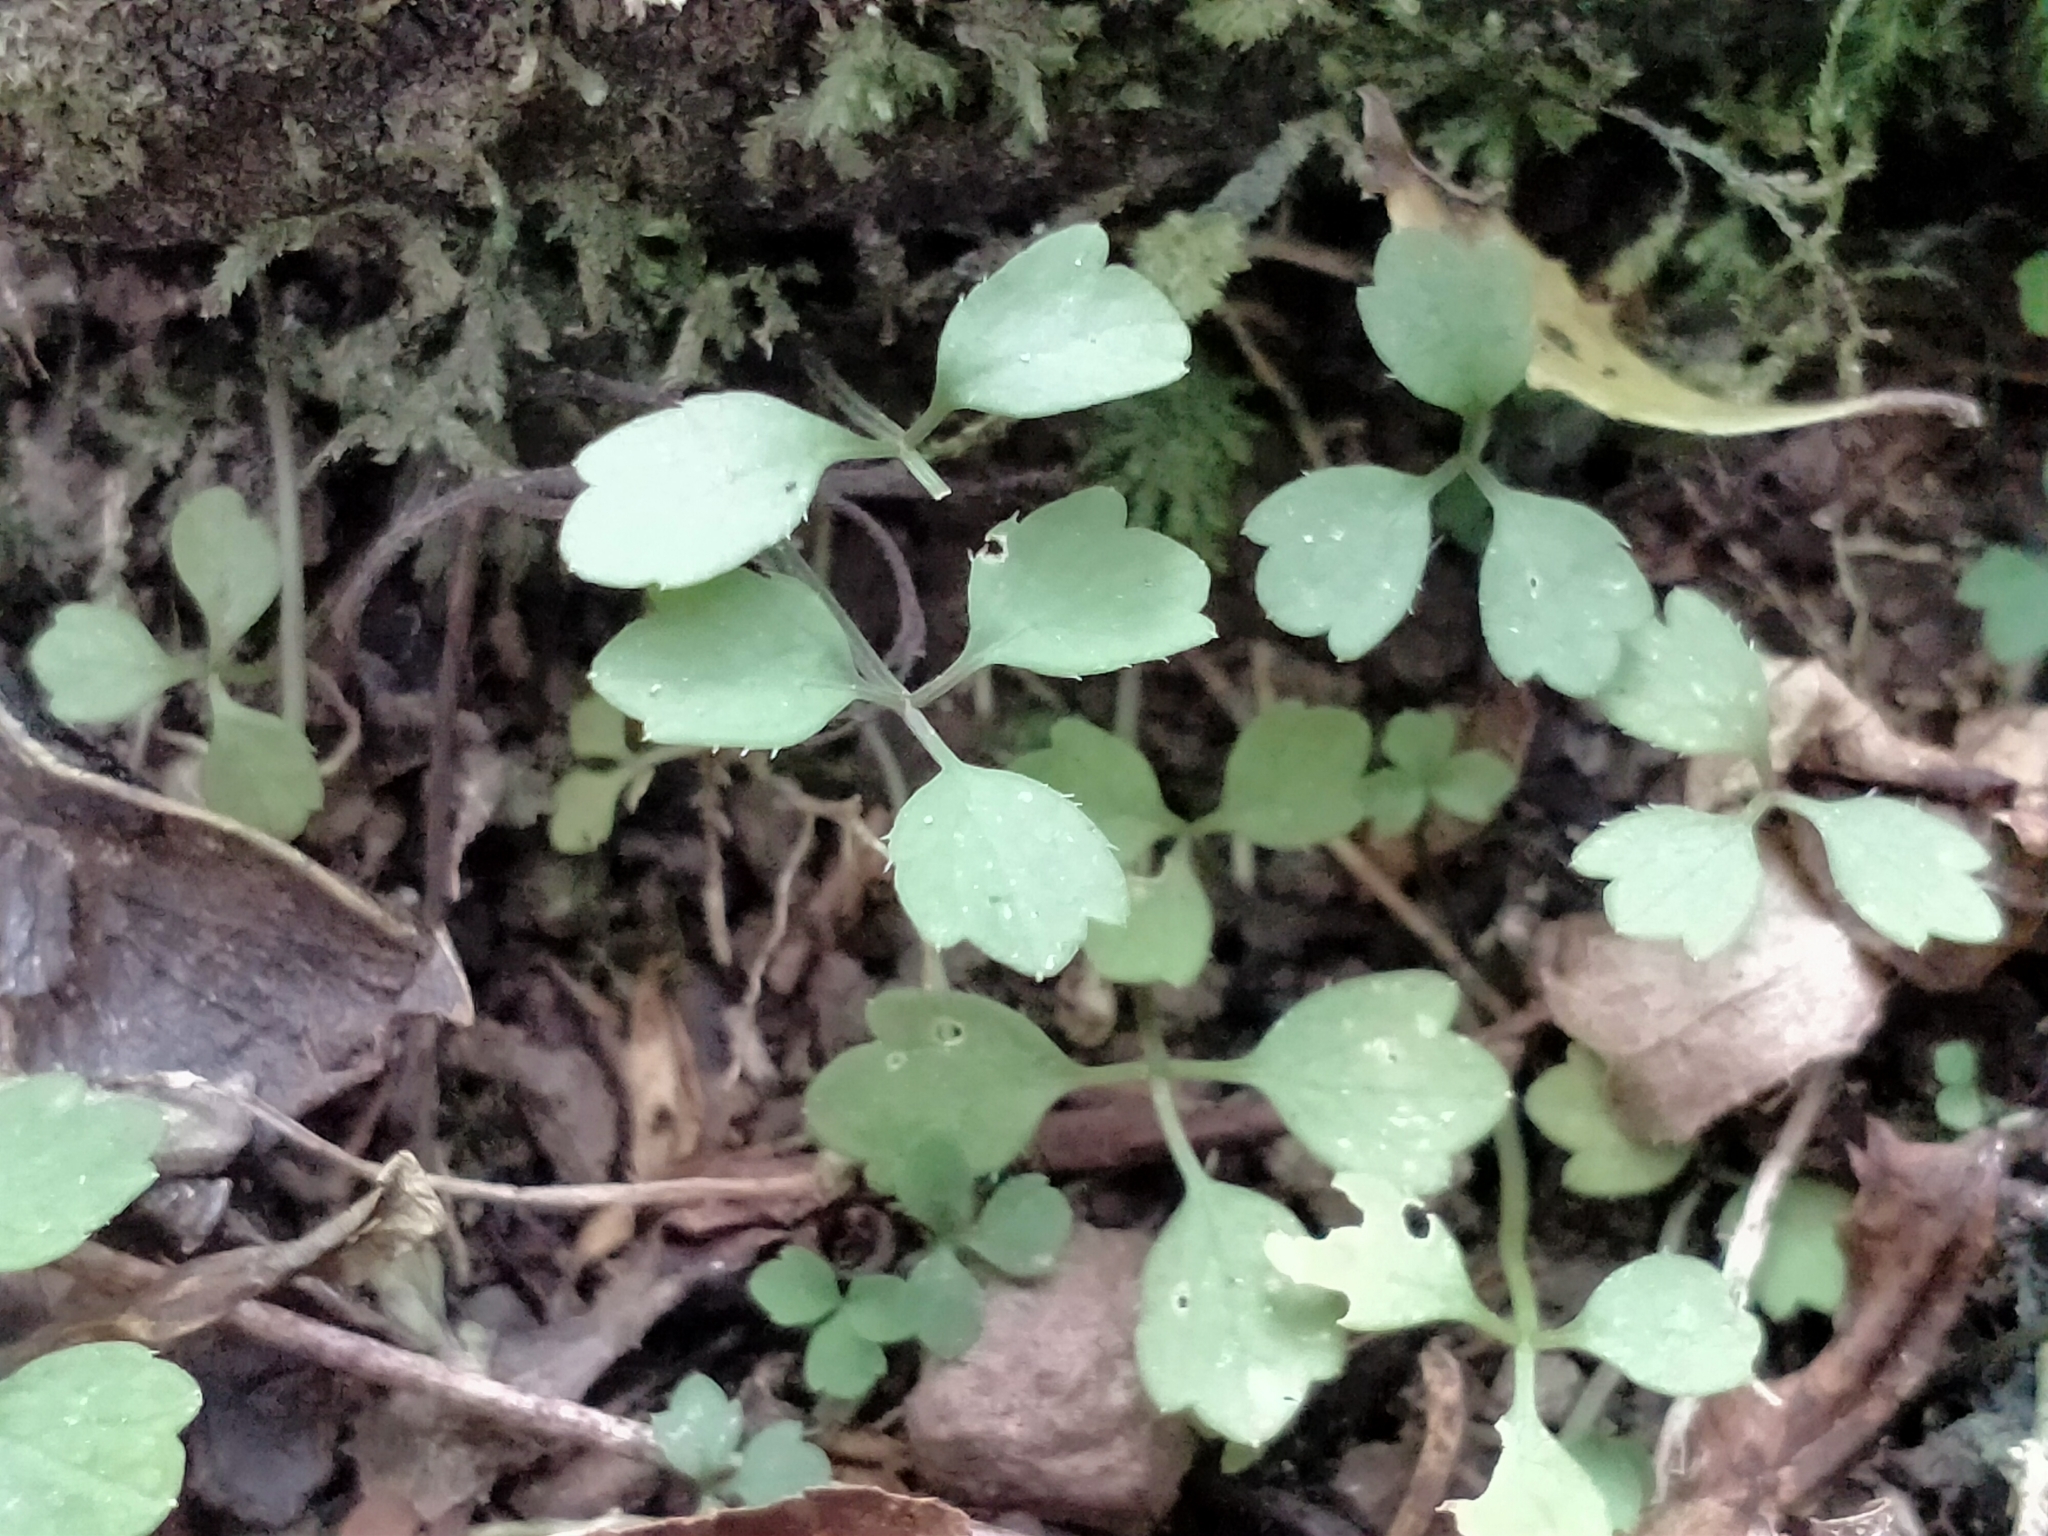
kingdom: Plantae
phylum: Tracheophyta
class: Magnoliopsida
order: Apiales
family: Apiaceae
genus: Azorella
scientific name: Azorella hookeri
